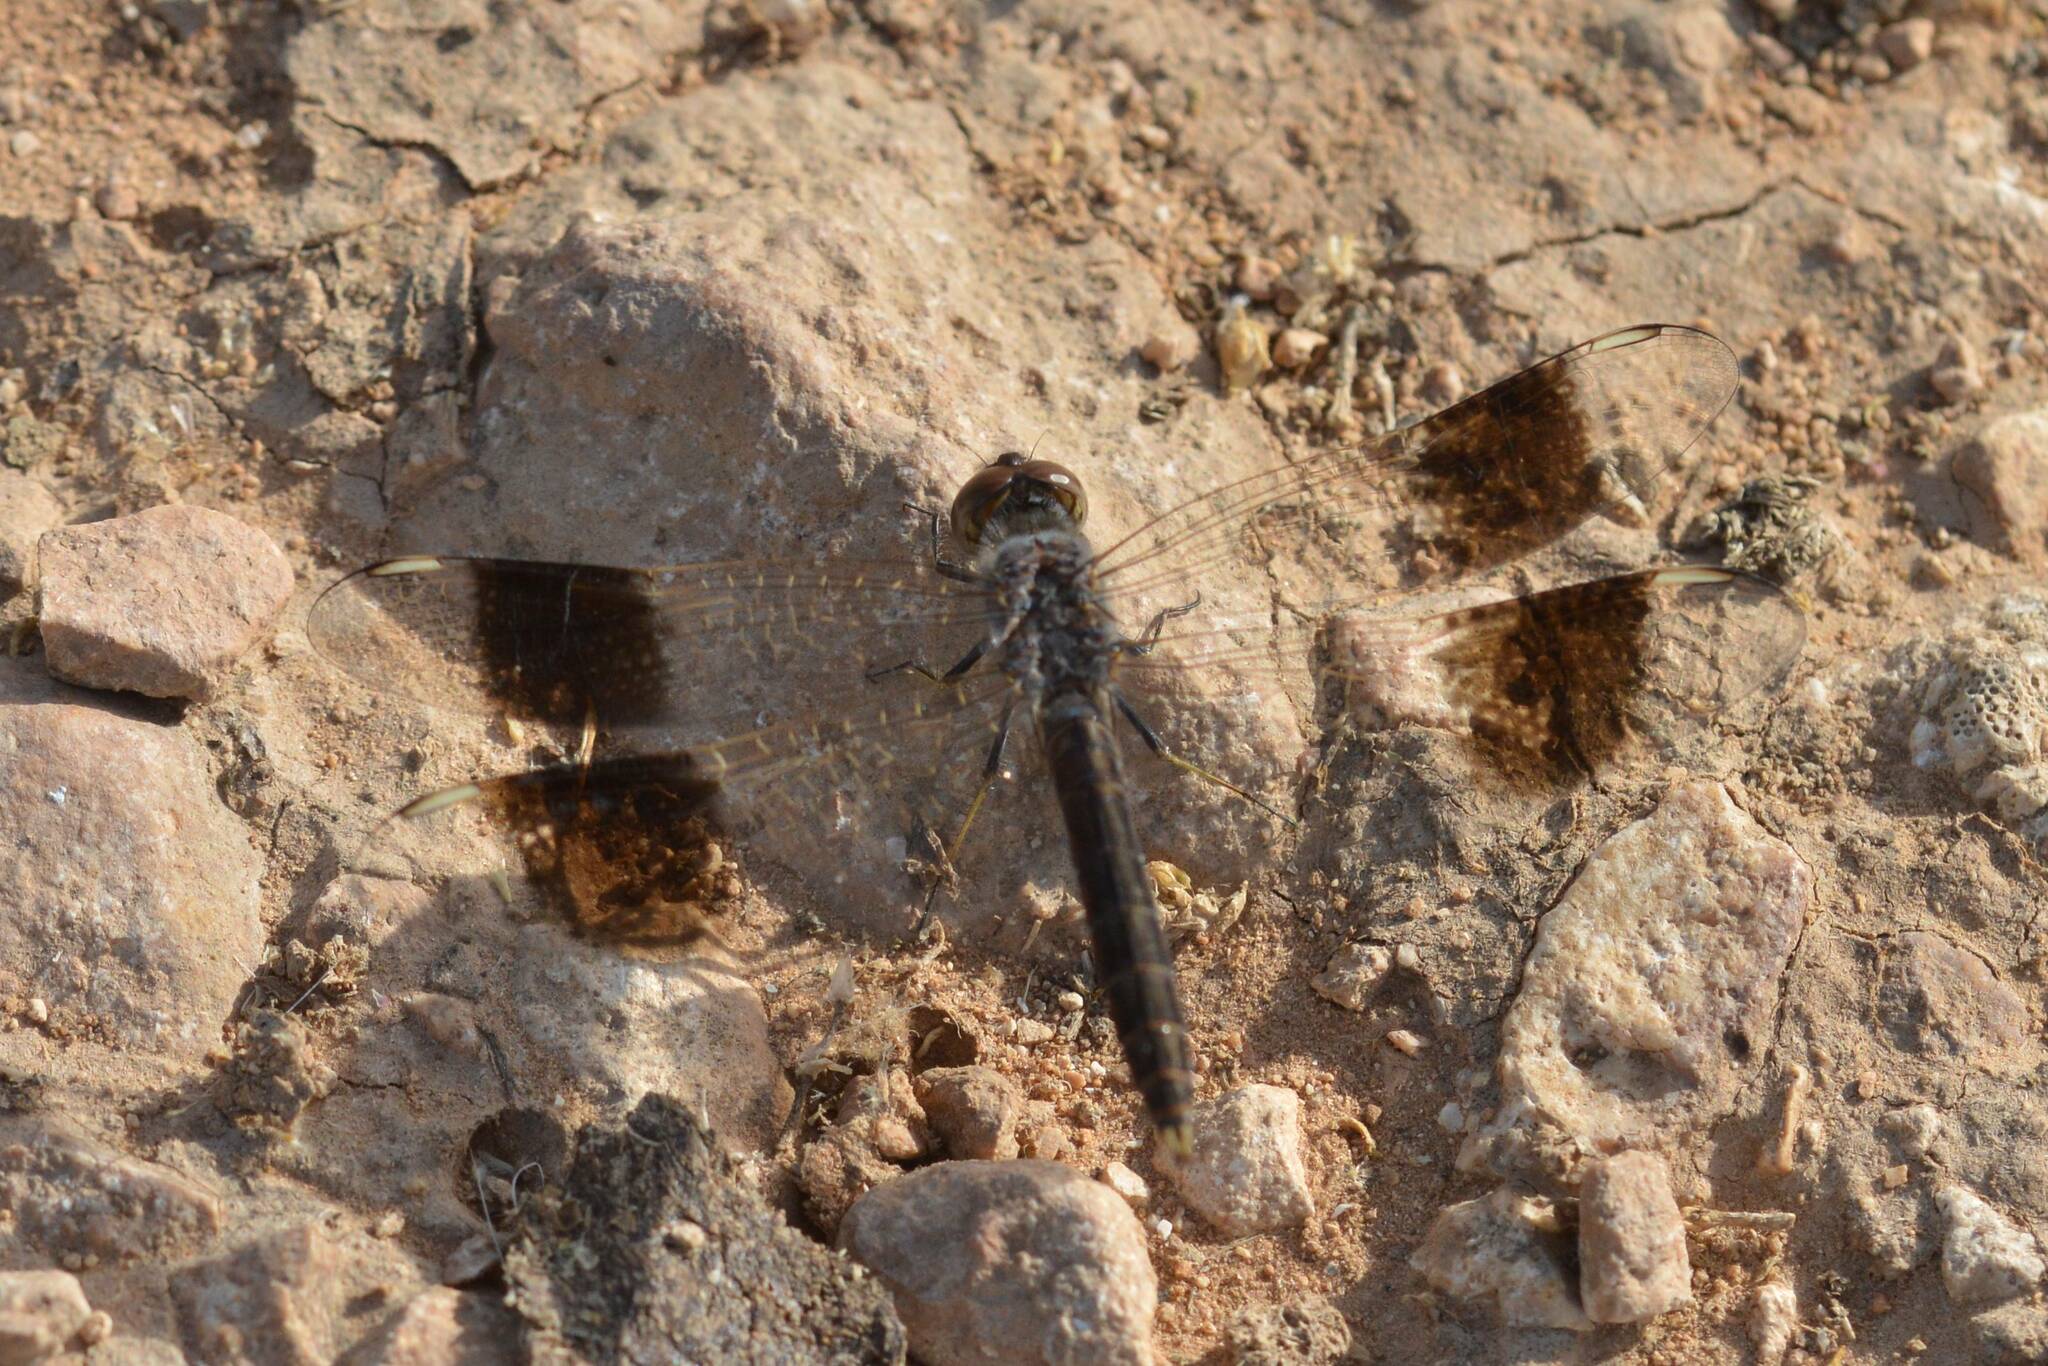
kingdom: Animalia
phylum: Arthropoda
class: Insecta
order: Odonata
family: Libellulidae
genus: Brachythemis
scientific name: Brachythemis impartita
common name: Banded groundling
